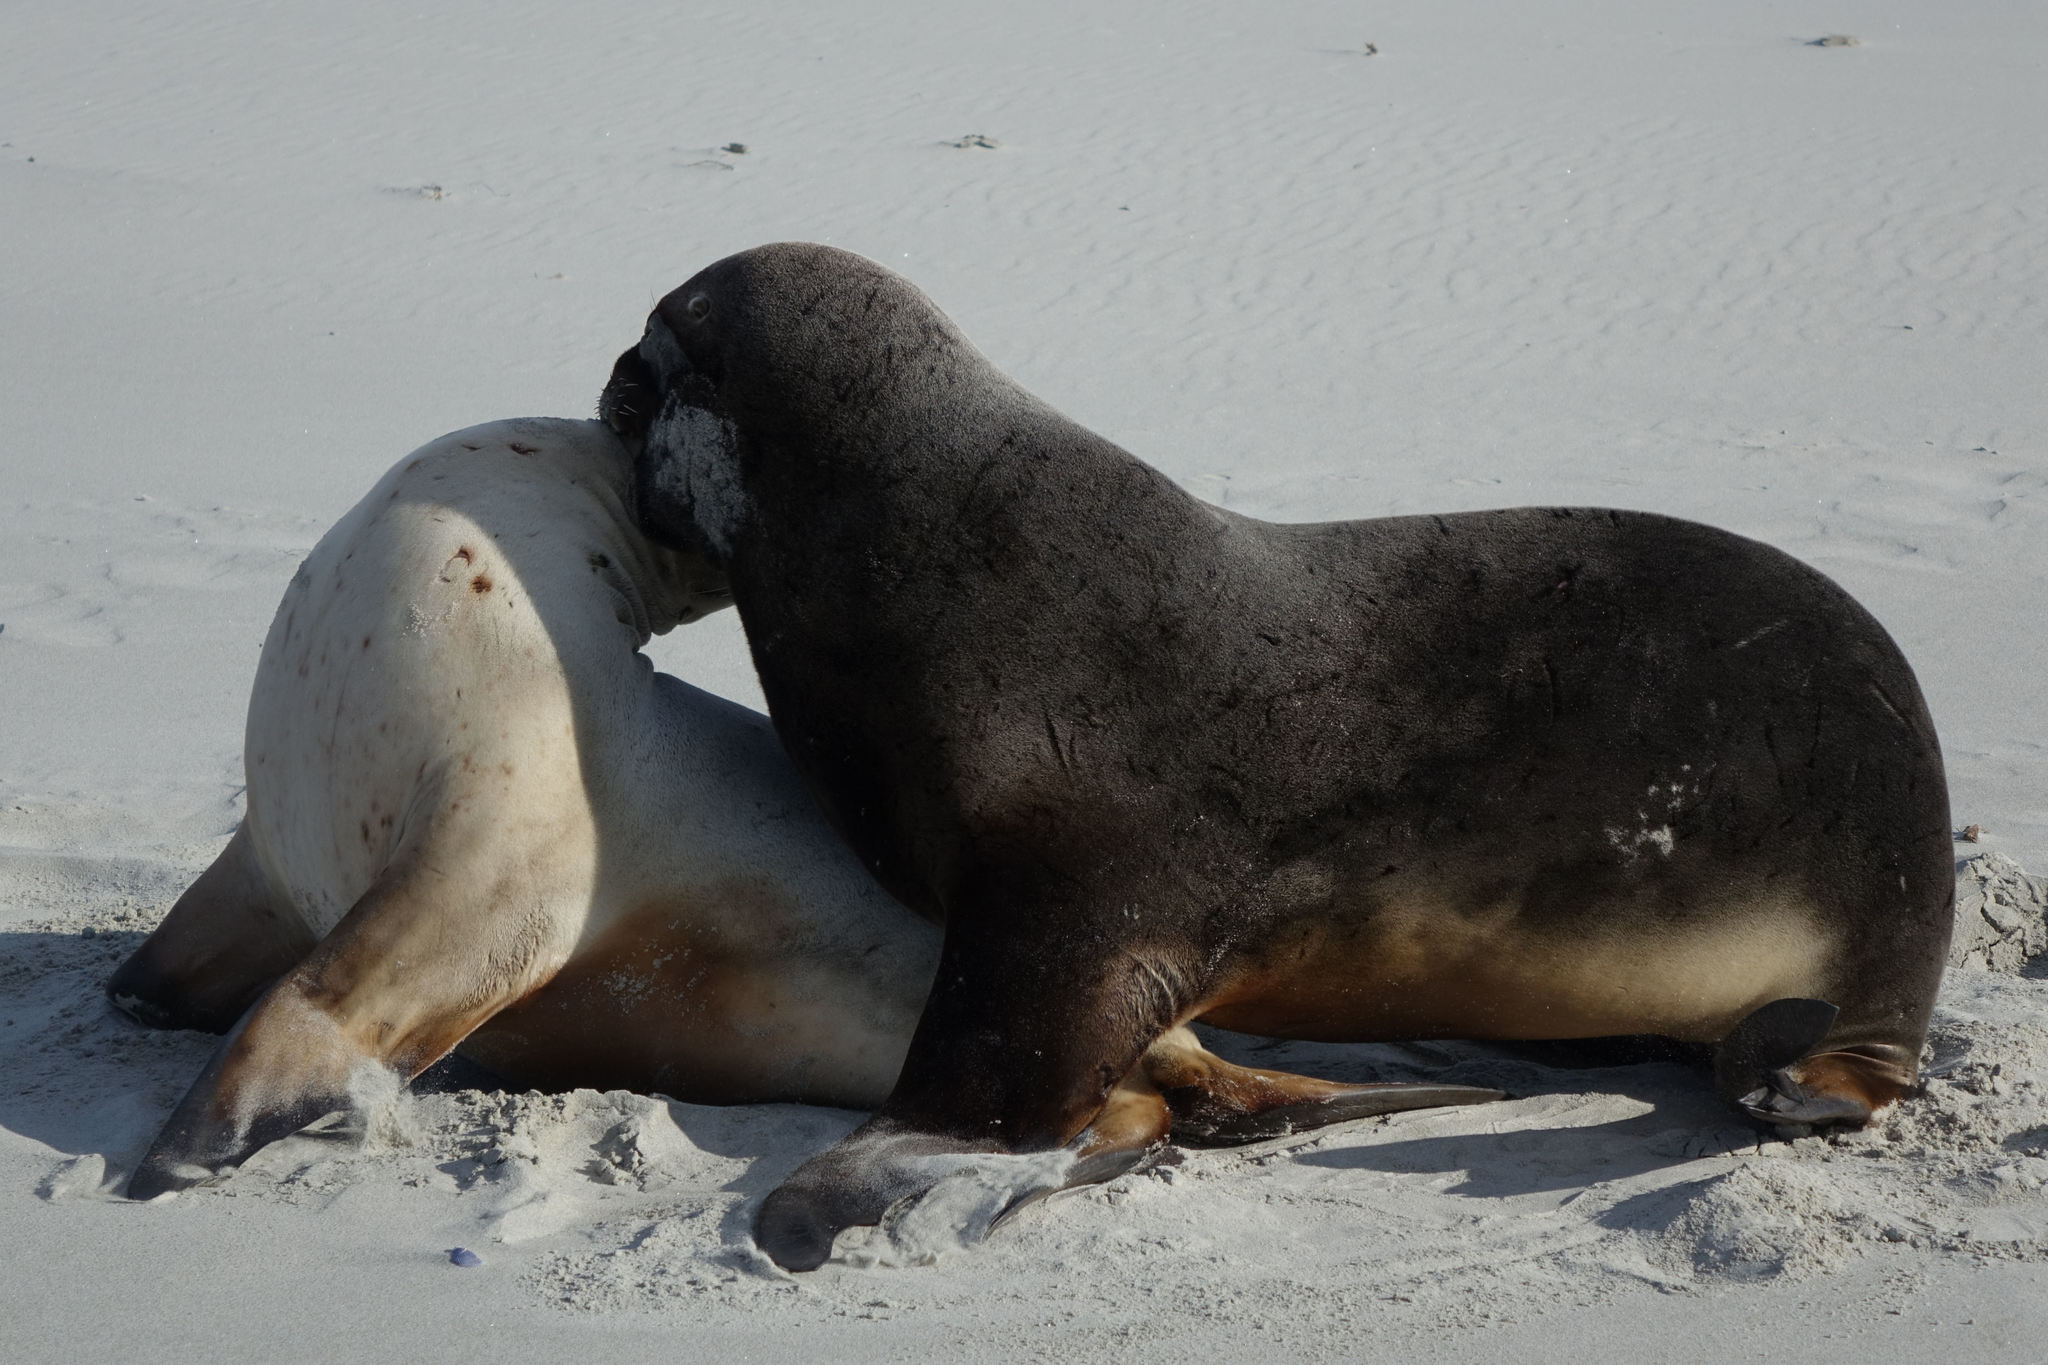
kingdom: Animalia
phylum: Chordata
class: Mammalia
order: Carnivora
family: Otariidae
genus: Phocarctos
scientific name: Phocarctos hookeri
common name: New zealand sea lion
